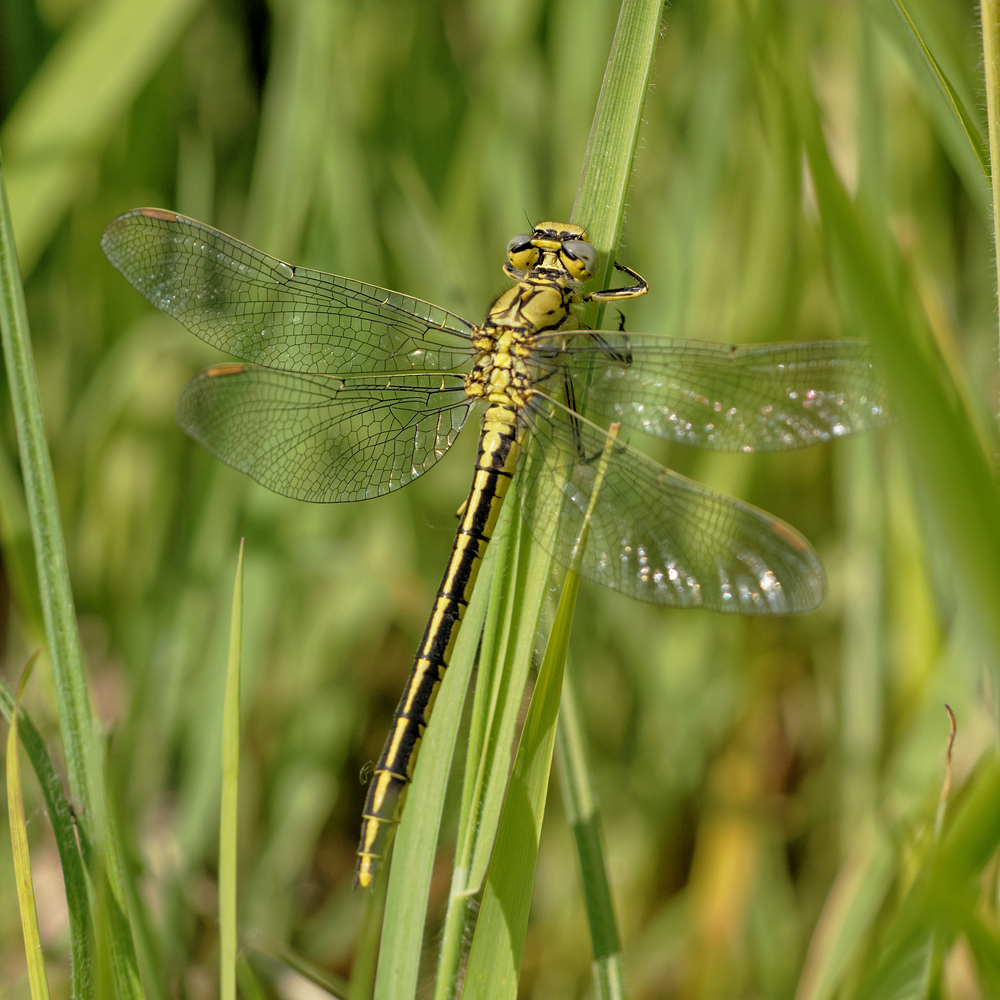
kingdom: Animalia
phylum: Arthropoda
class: Insecta
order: Odonata
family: Gomphidae
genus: Gomphus
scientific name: Gomphus pulchellus
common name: Western clubtail
